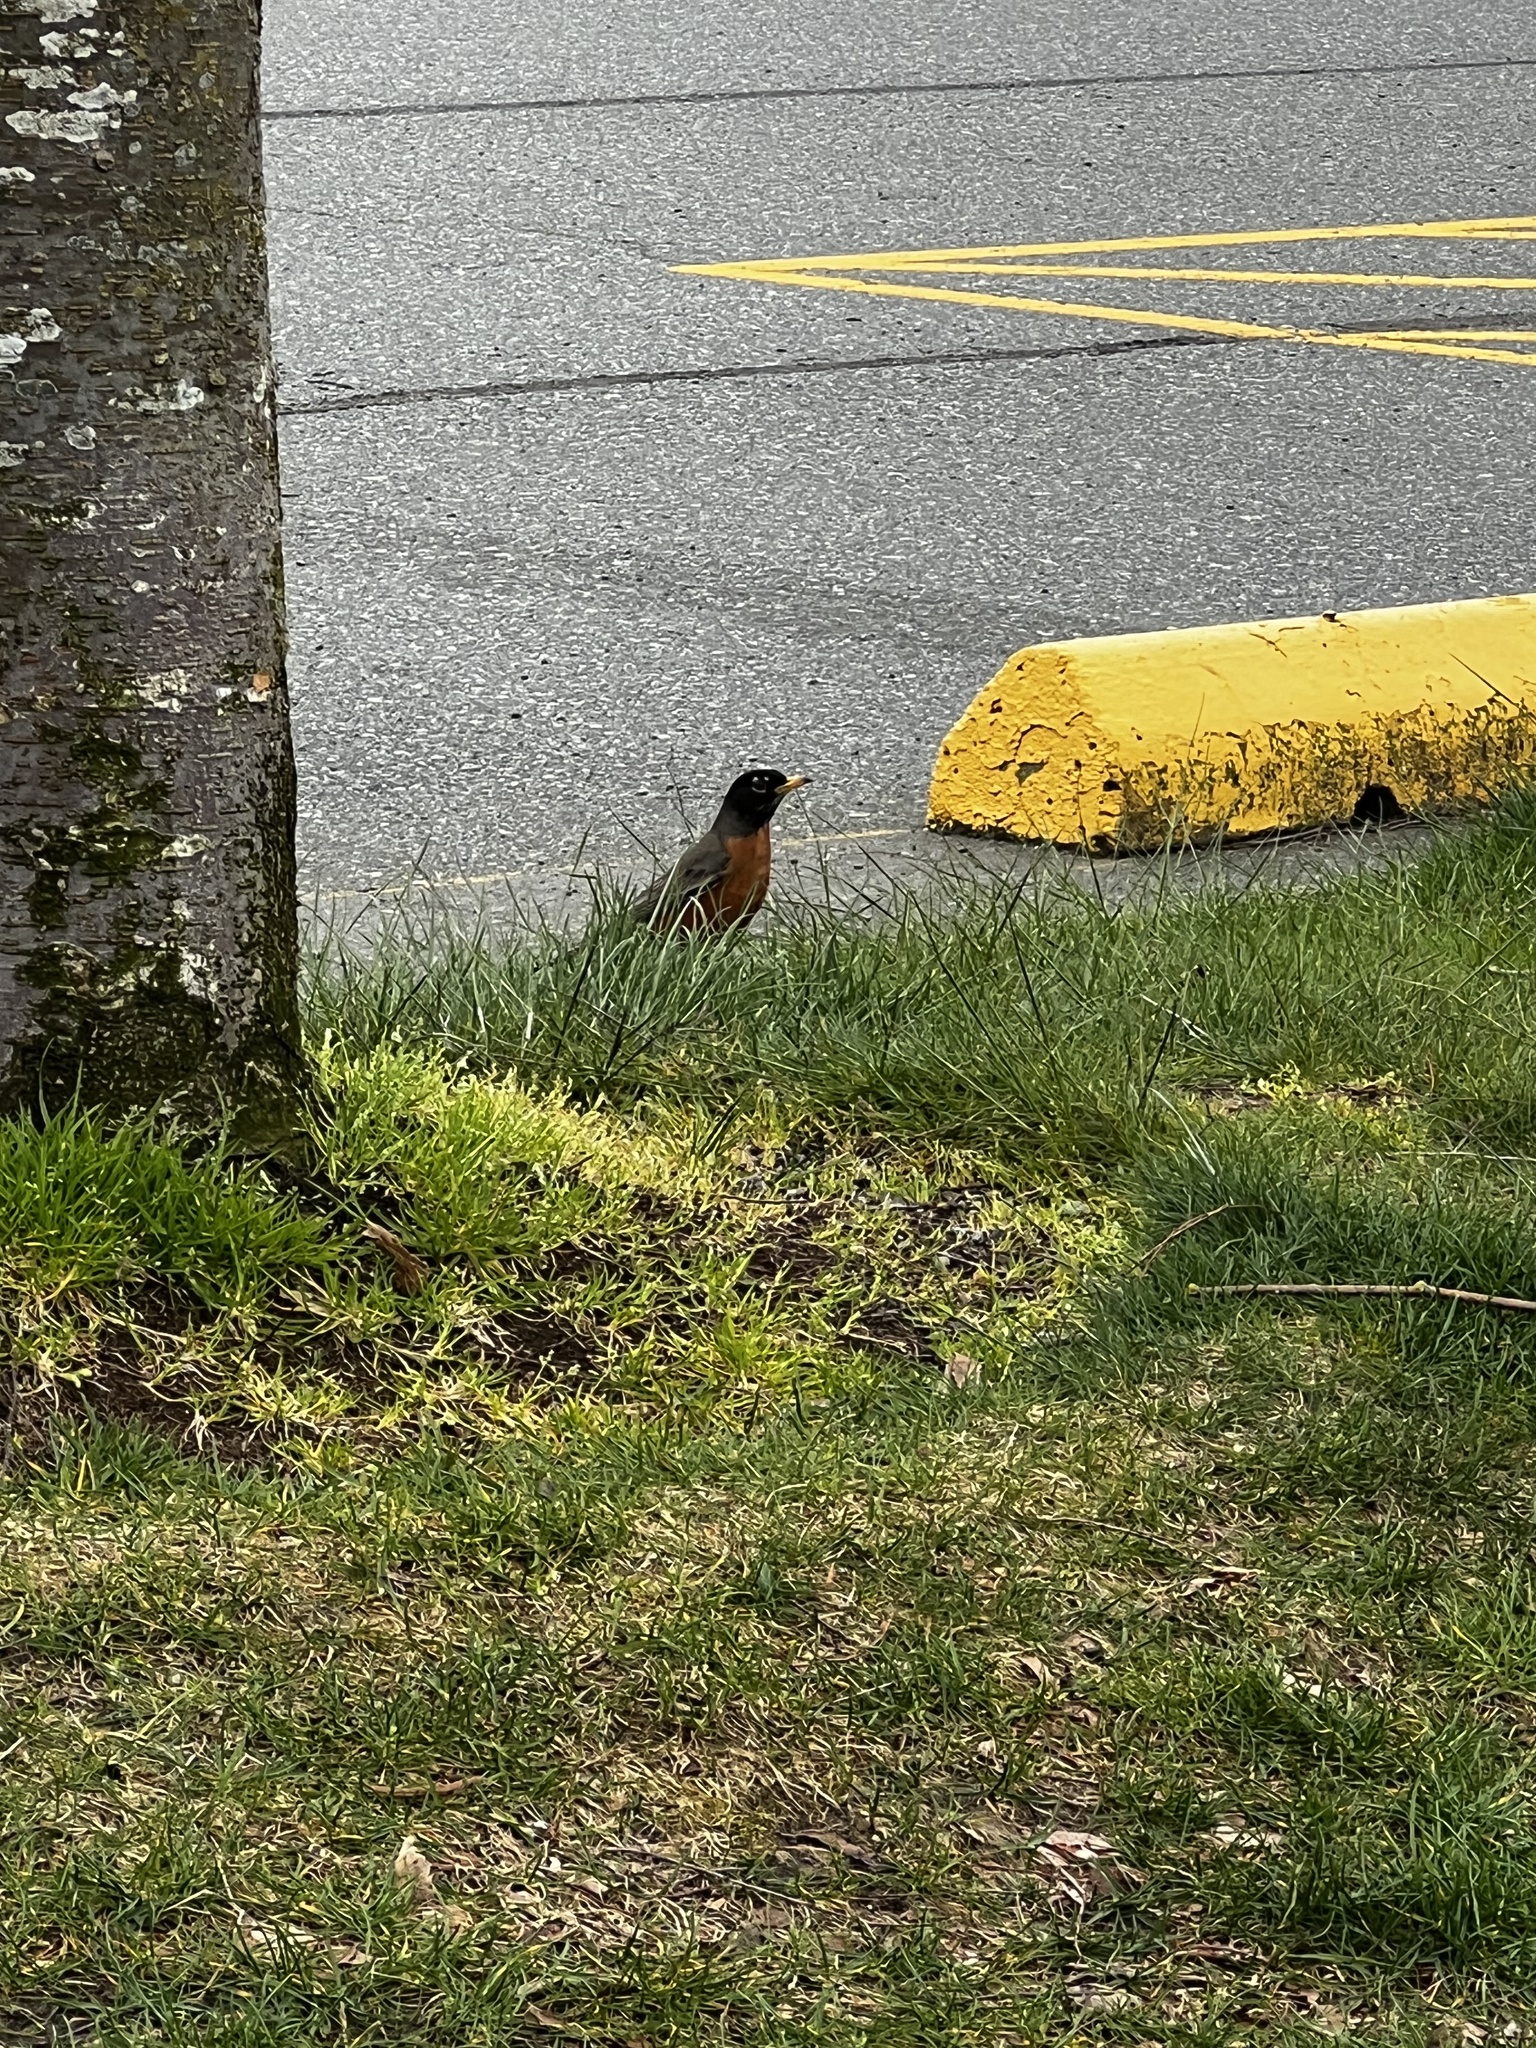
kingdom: Animalia
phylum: Chordata
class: Aves
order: Passeriformes
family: Turdidae
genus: Turdus
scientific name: Turdus migratorius
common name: American robin
